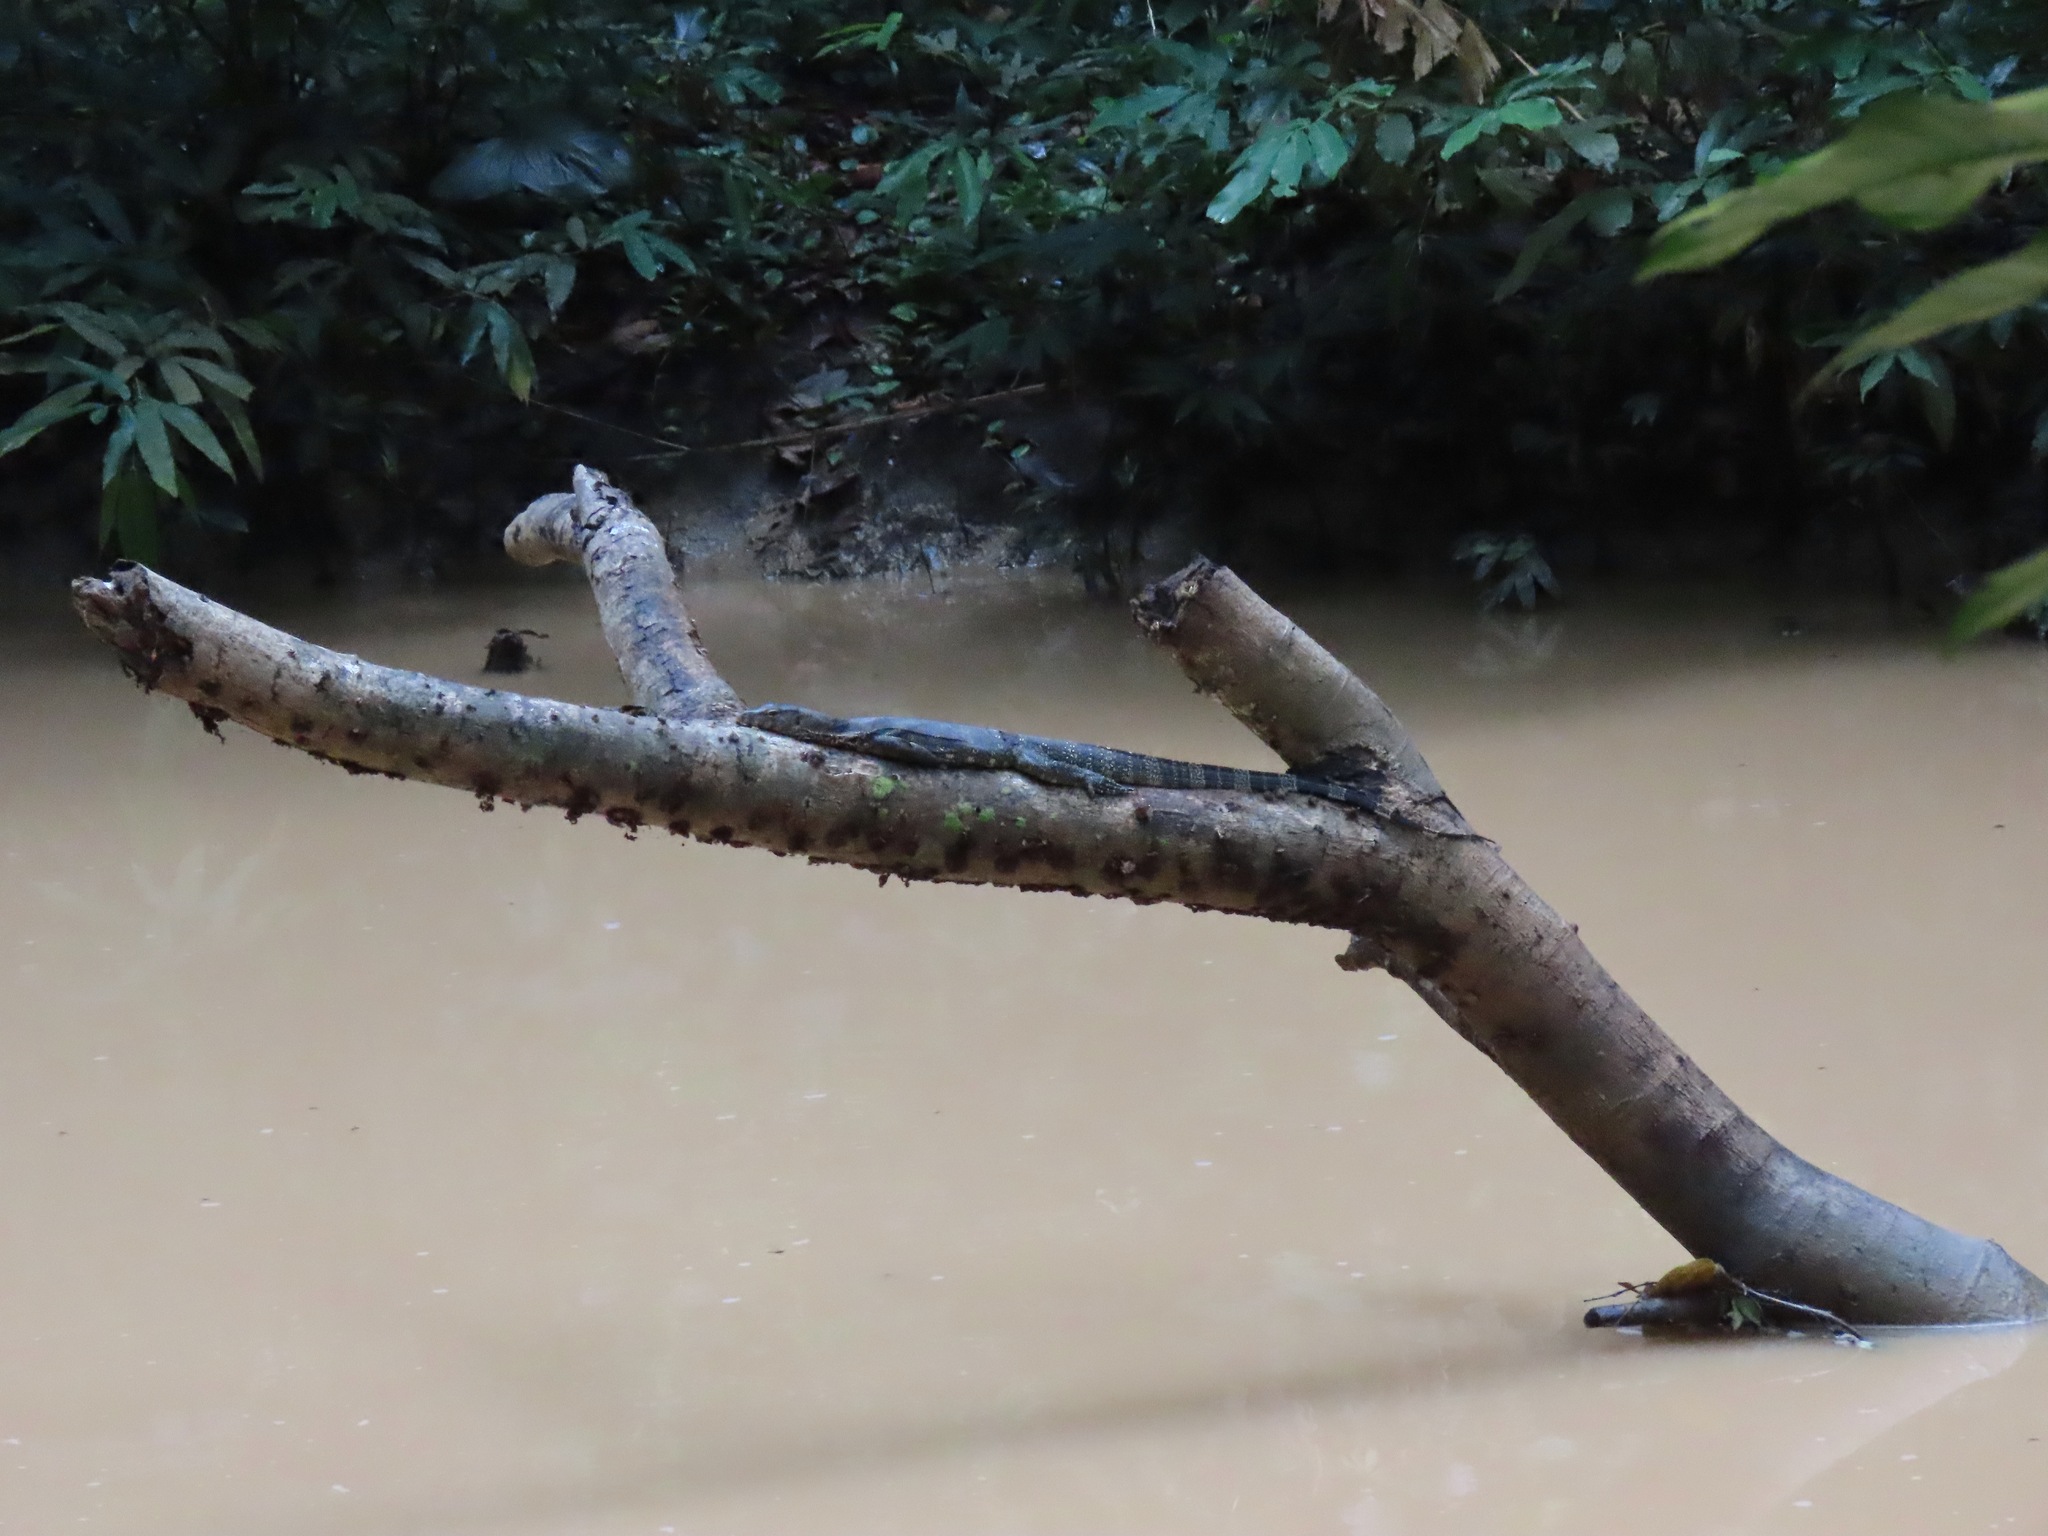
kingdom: Animalia
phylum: Chordata
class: Squamata
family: Varanidae
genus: Varanus
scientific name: Varanus salvator
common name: Common water monitor
